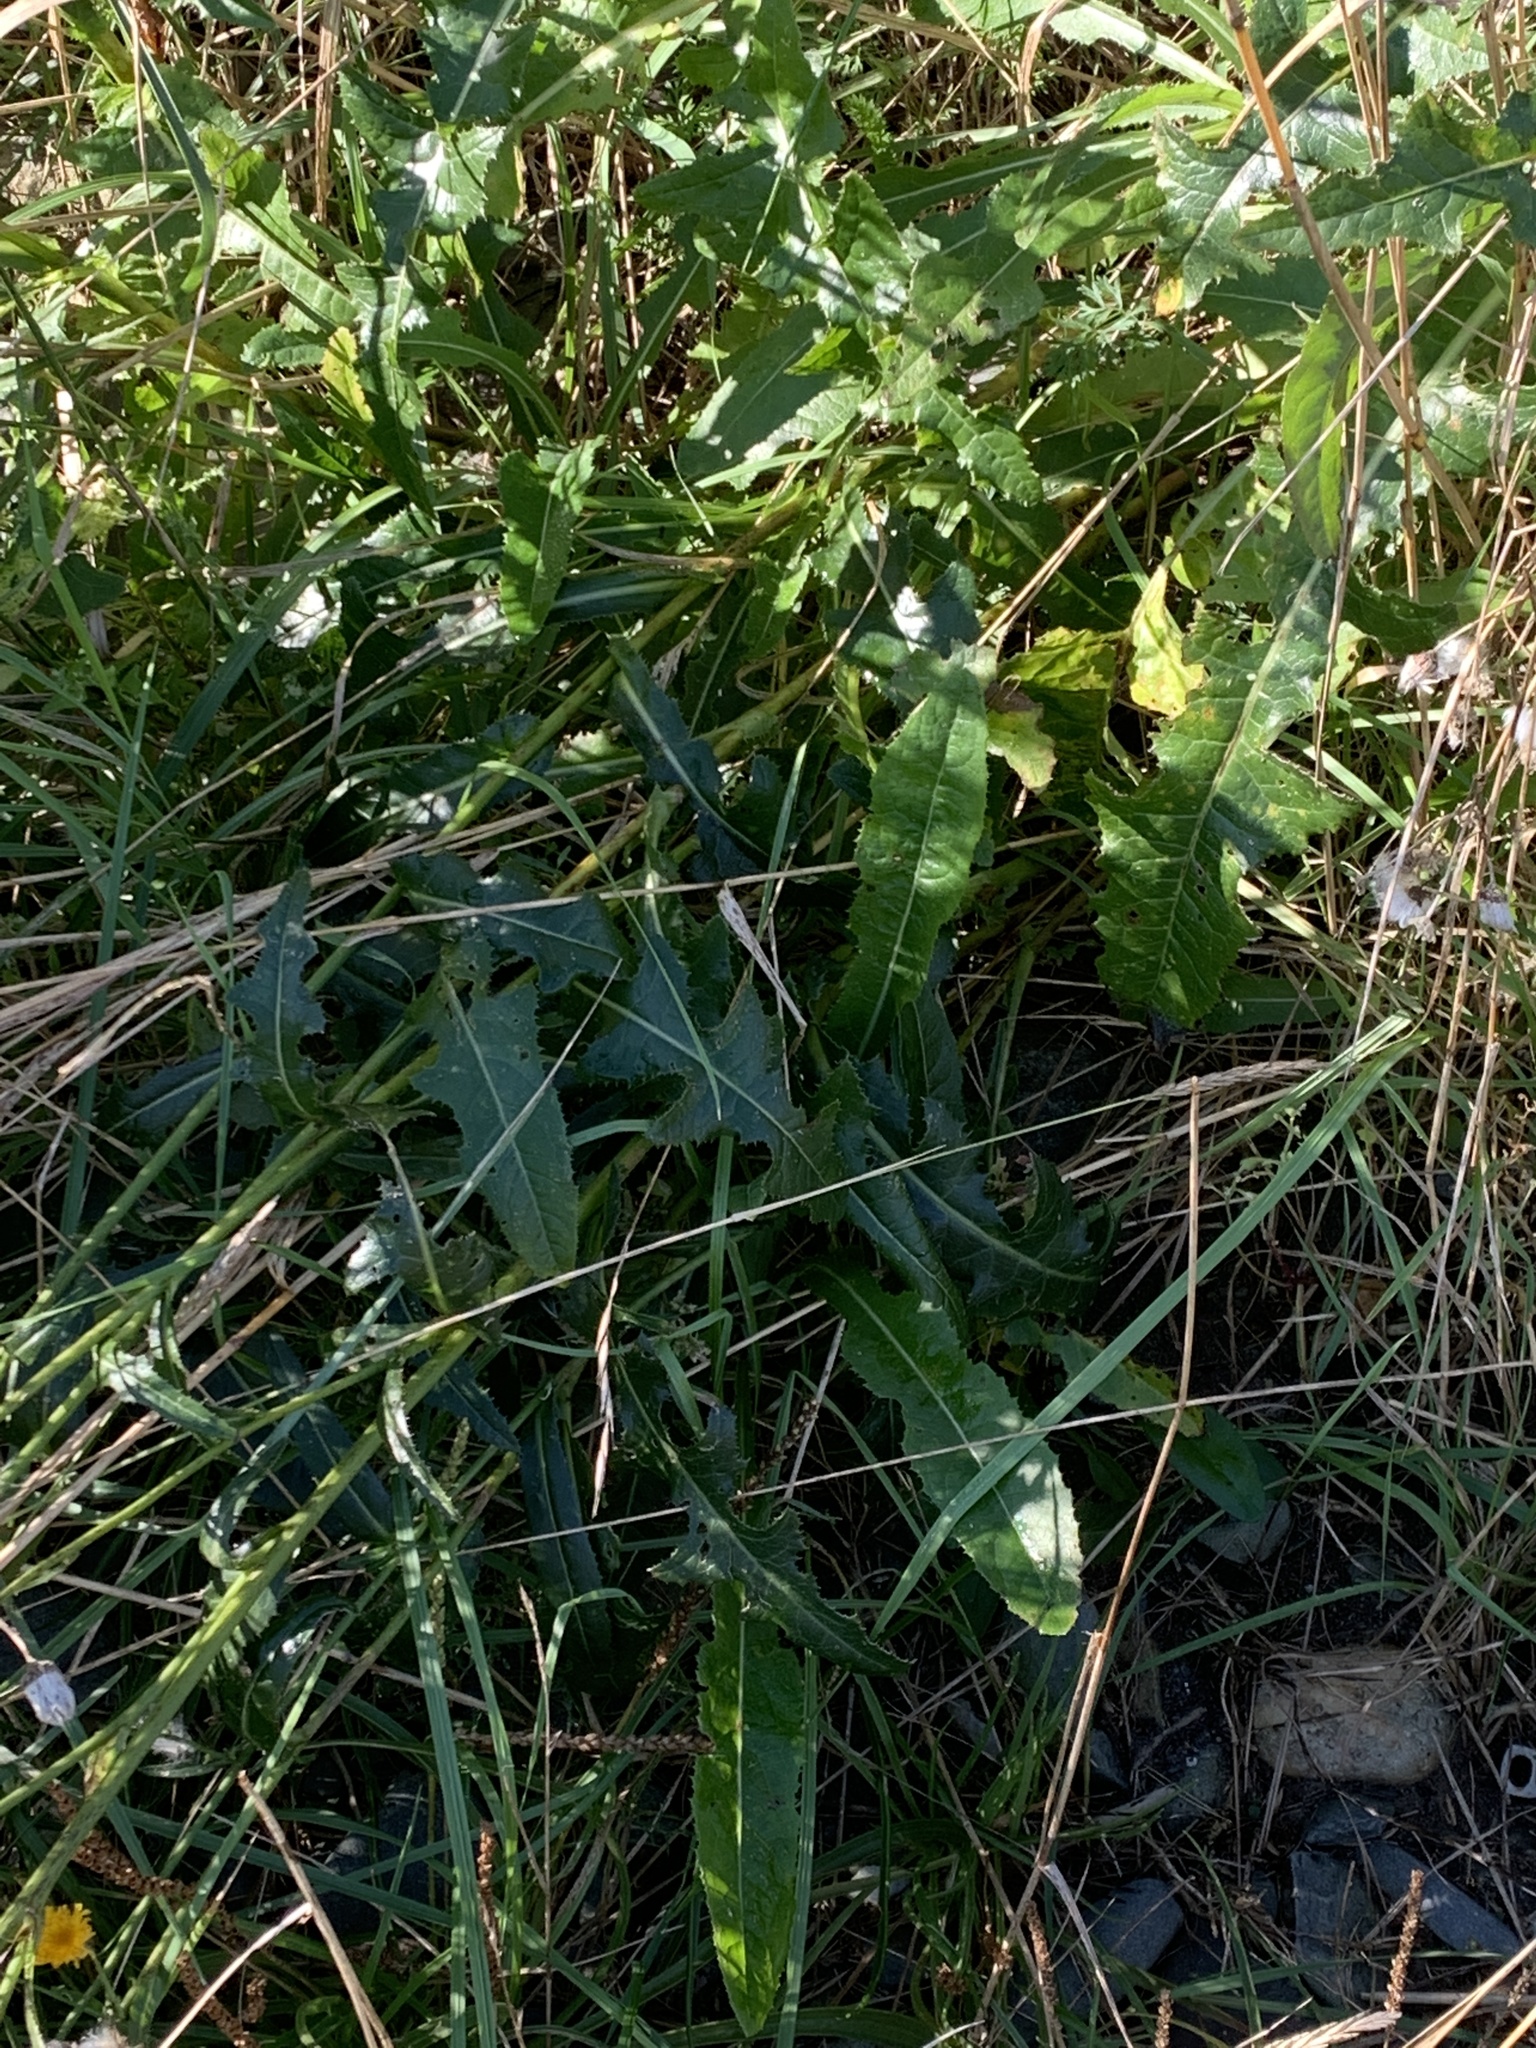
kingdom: Plantae
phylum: Tracheophyta
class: Magnoliopsida
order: Asterales
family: Asteraceae
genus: Sonchus
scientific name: Sonchus arvensis
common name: Perennial sow-thistle
